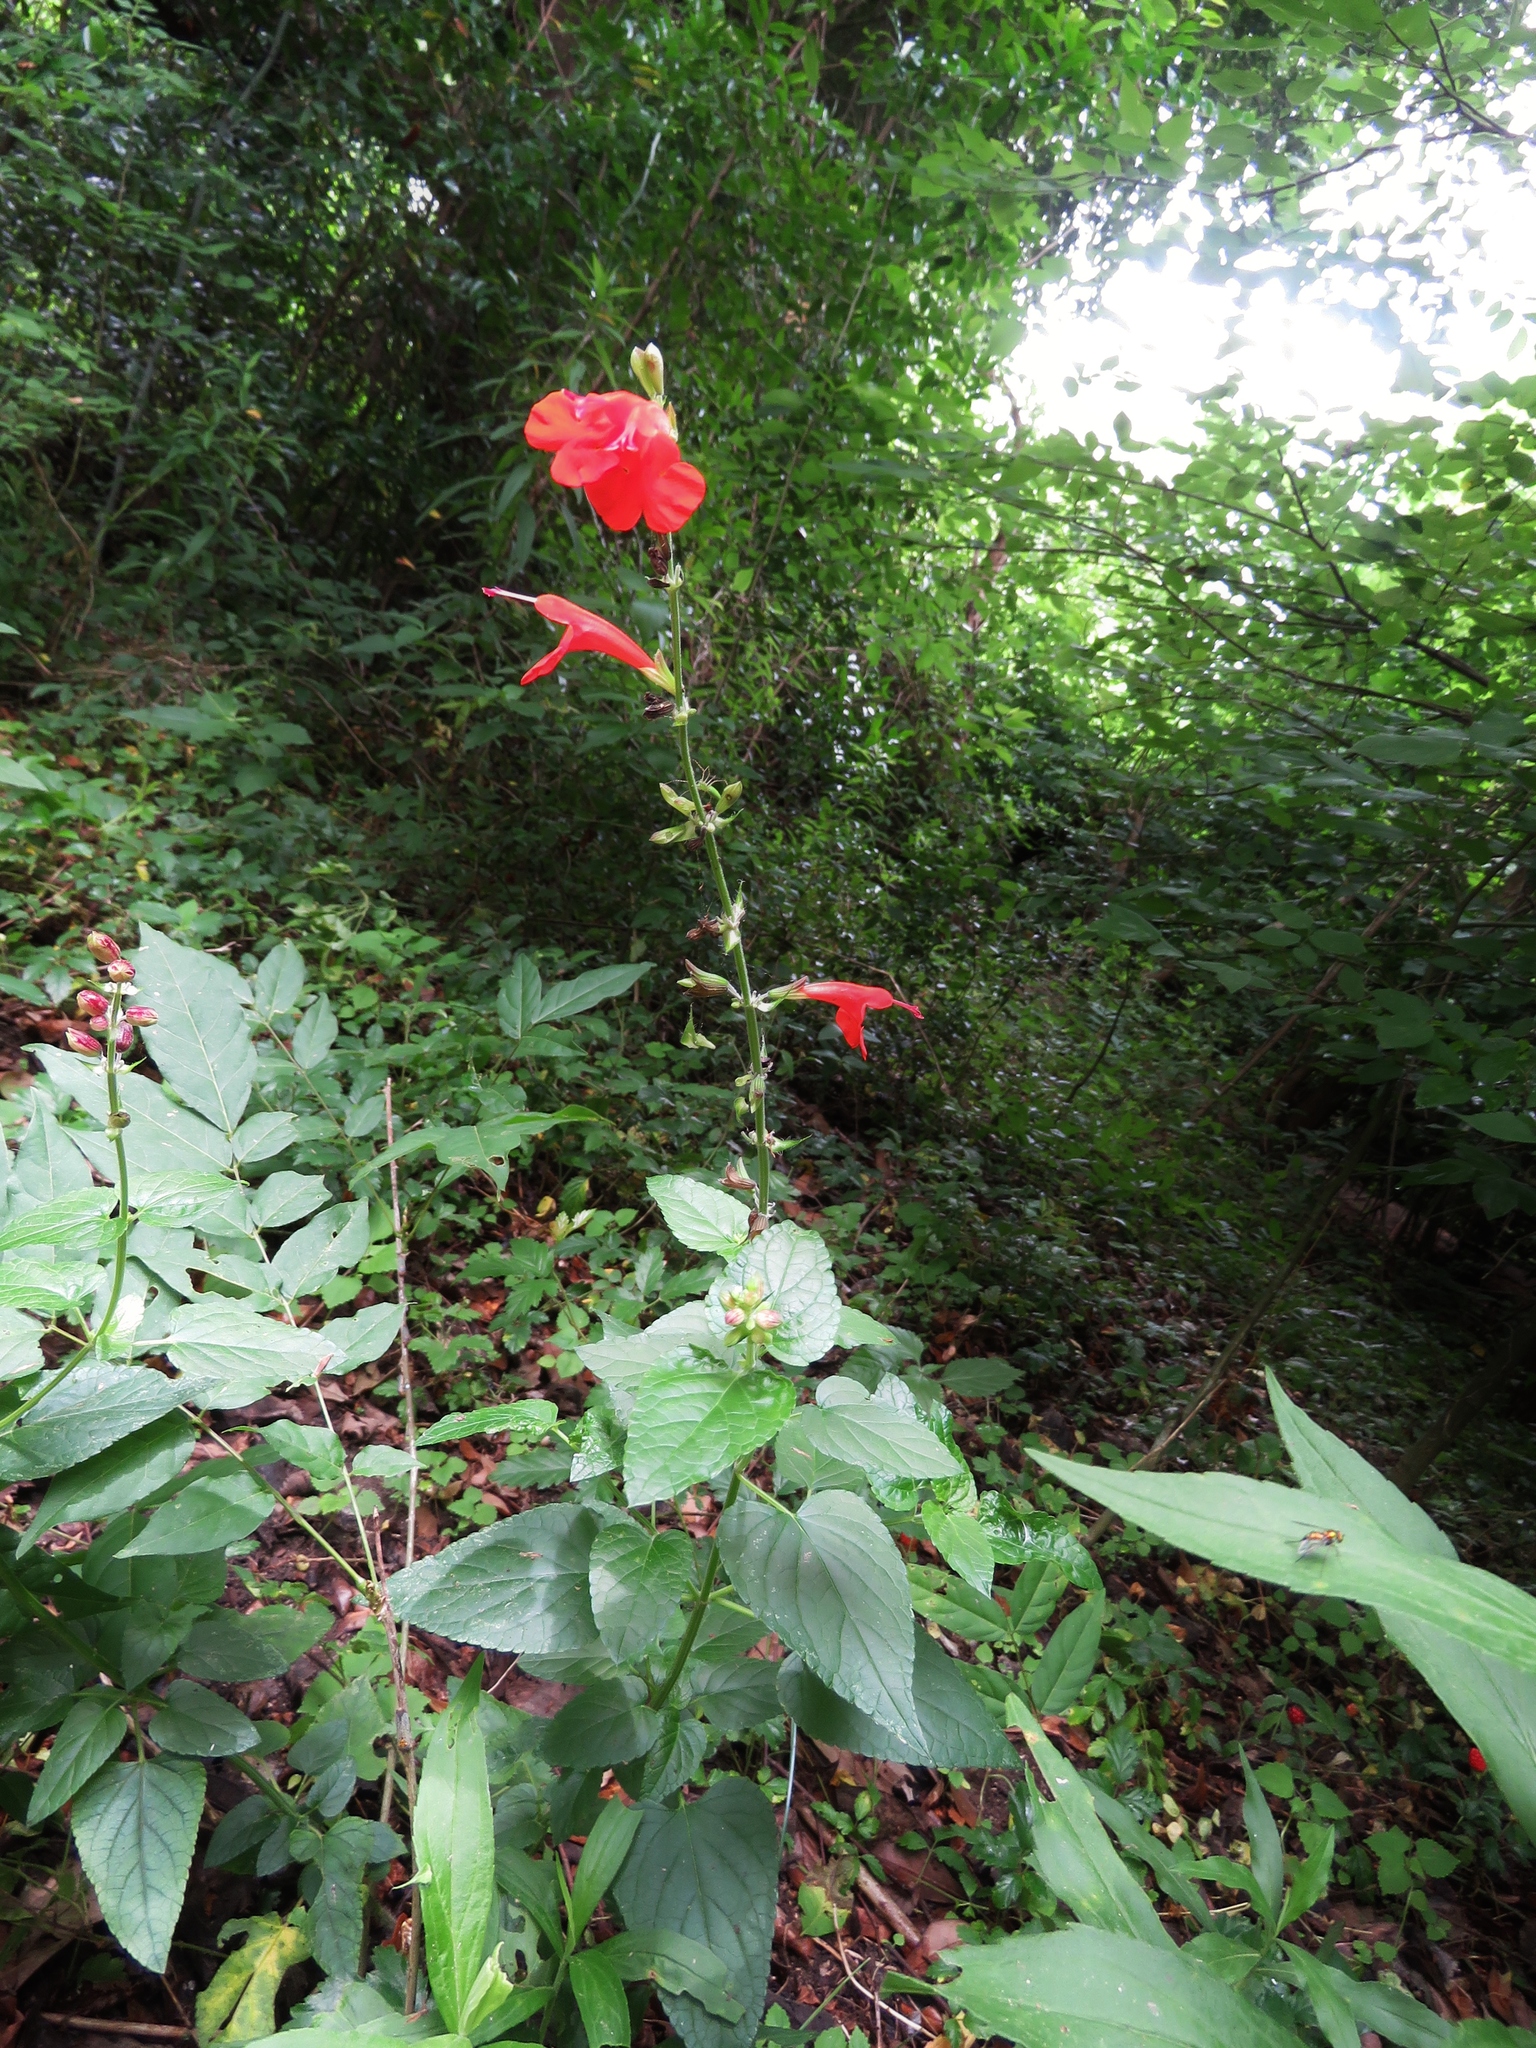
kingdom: Plantae
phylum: Tracheophyta
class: Magnoliopsida
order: Lamiales
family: Lamiaceae
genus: Salvia
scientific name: Salvia coccinea
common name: Blood sage
